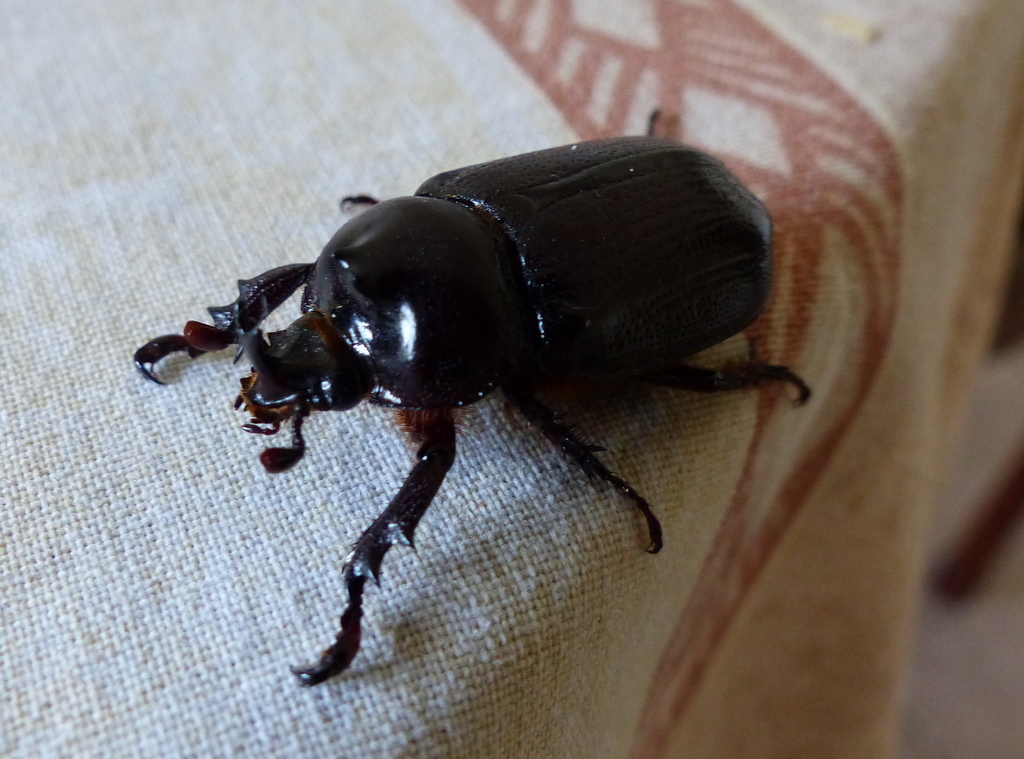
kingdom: Animalia
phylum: Arthropoda
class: Insecta
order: Coleoptera
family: Scarabaeidae
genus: Cyphonistes
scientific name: Cyphonistes vallatus
